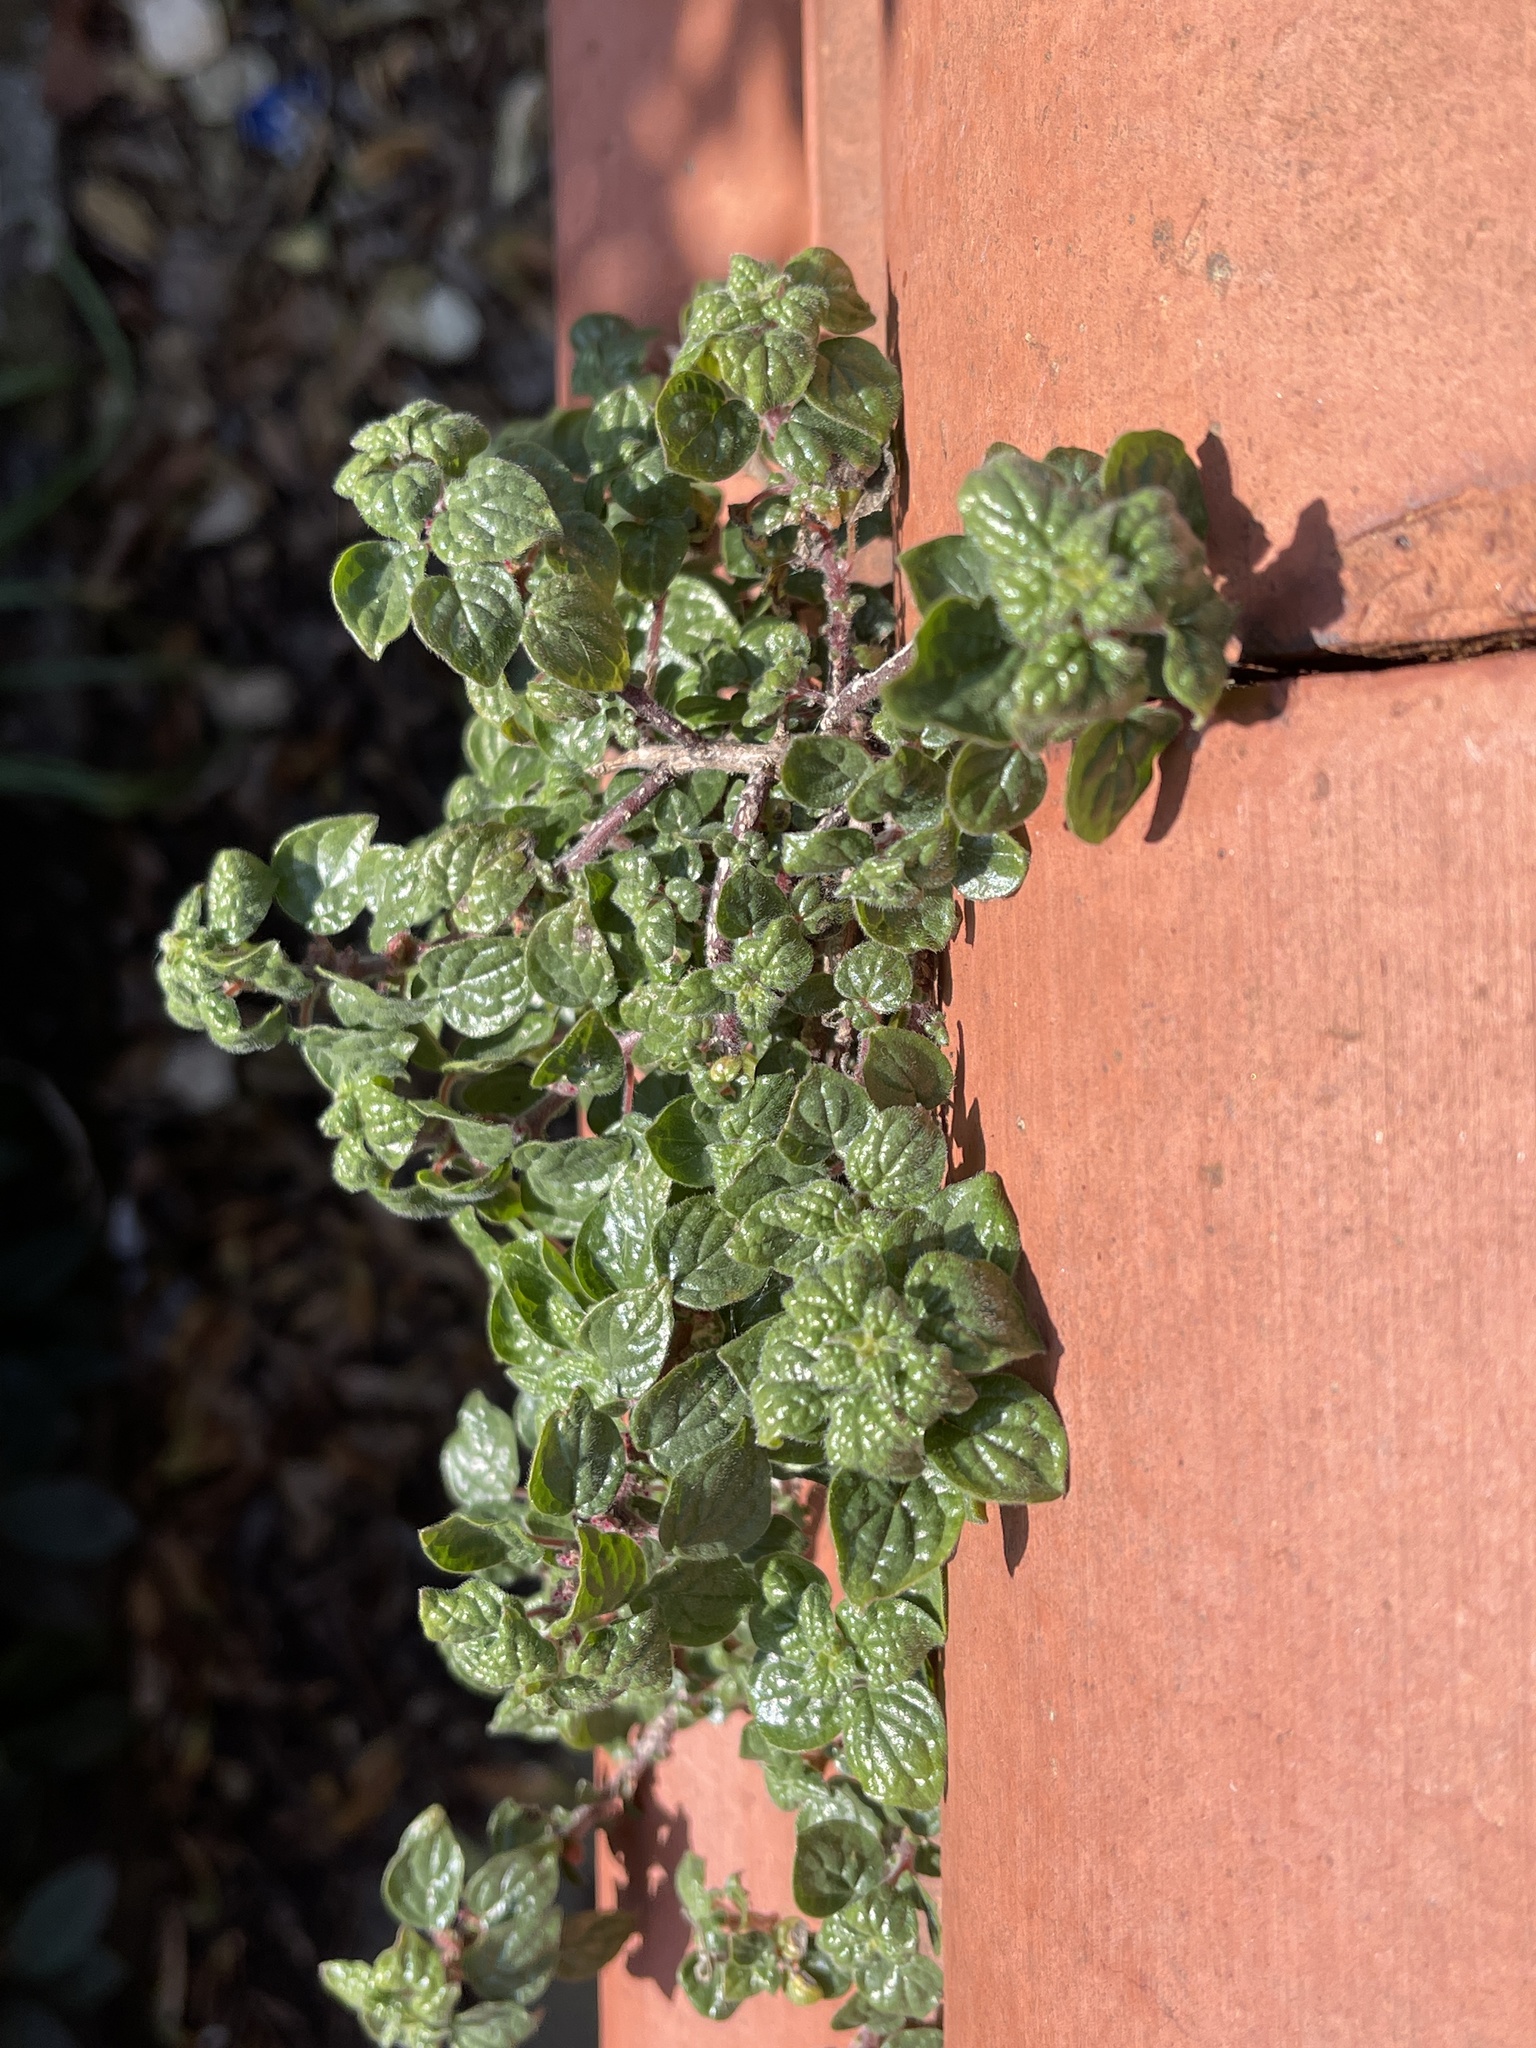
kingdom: Plantae
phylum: Tracheophyta
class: Magnoliopsida
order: Rosales
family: Urticaceae
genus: Parietaria
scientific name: Parietaria judaica
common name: Pellitory-of-the-wall
